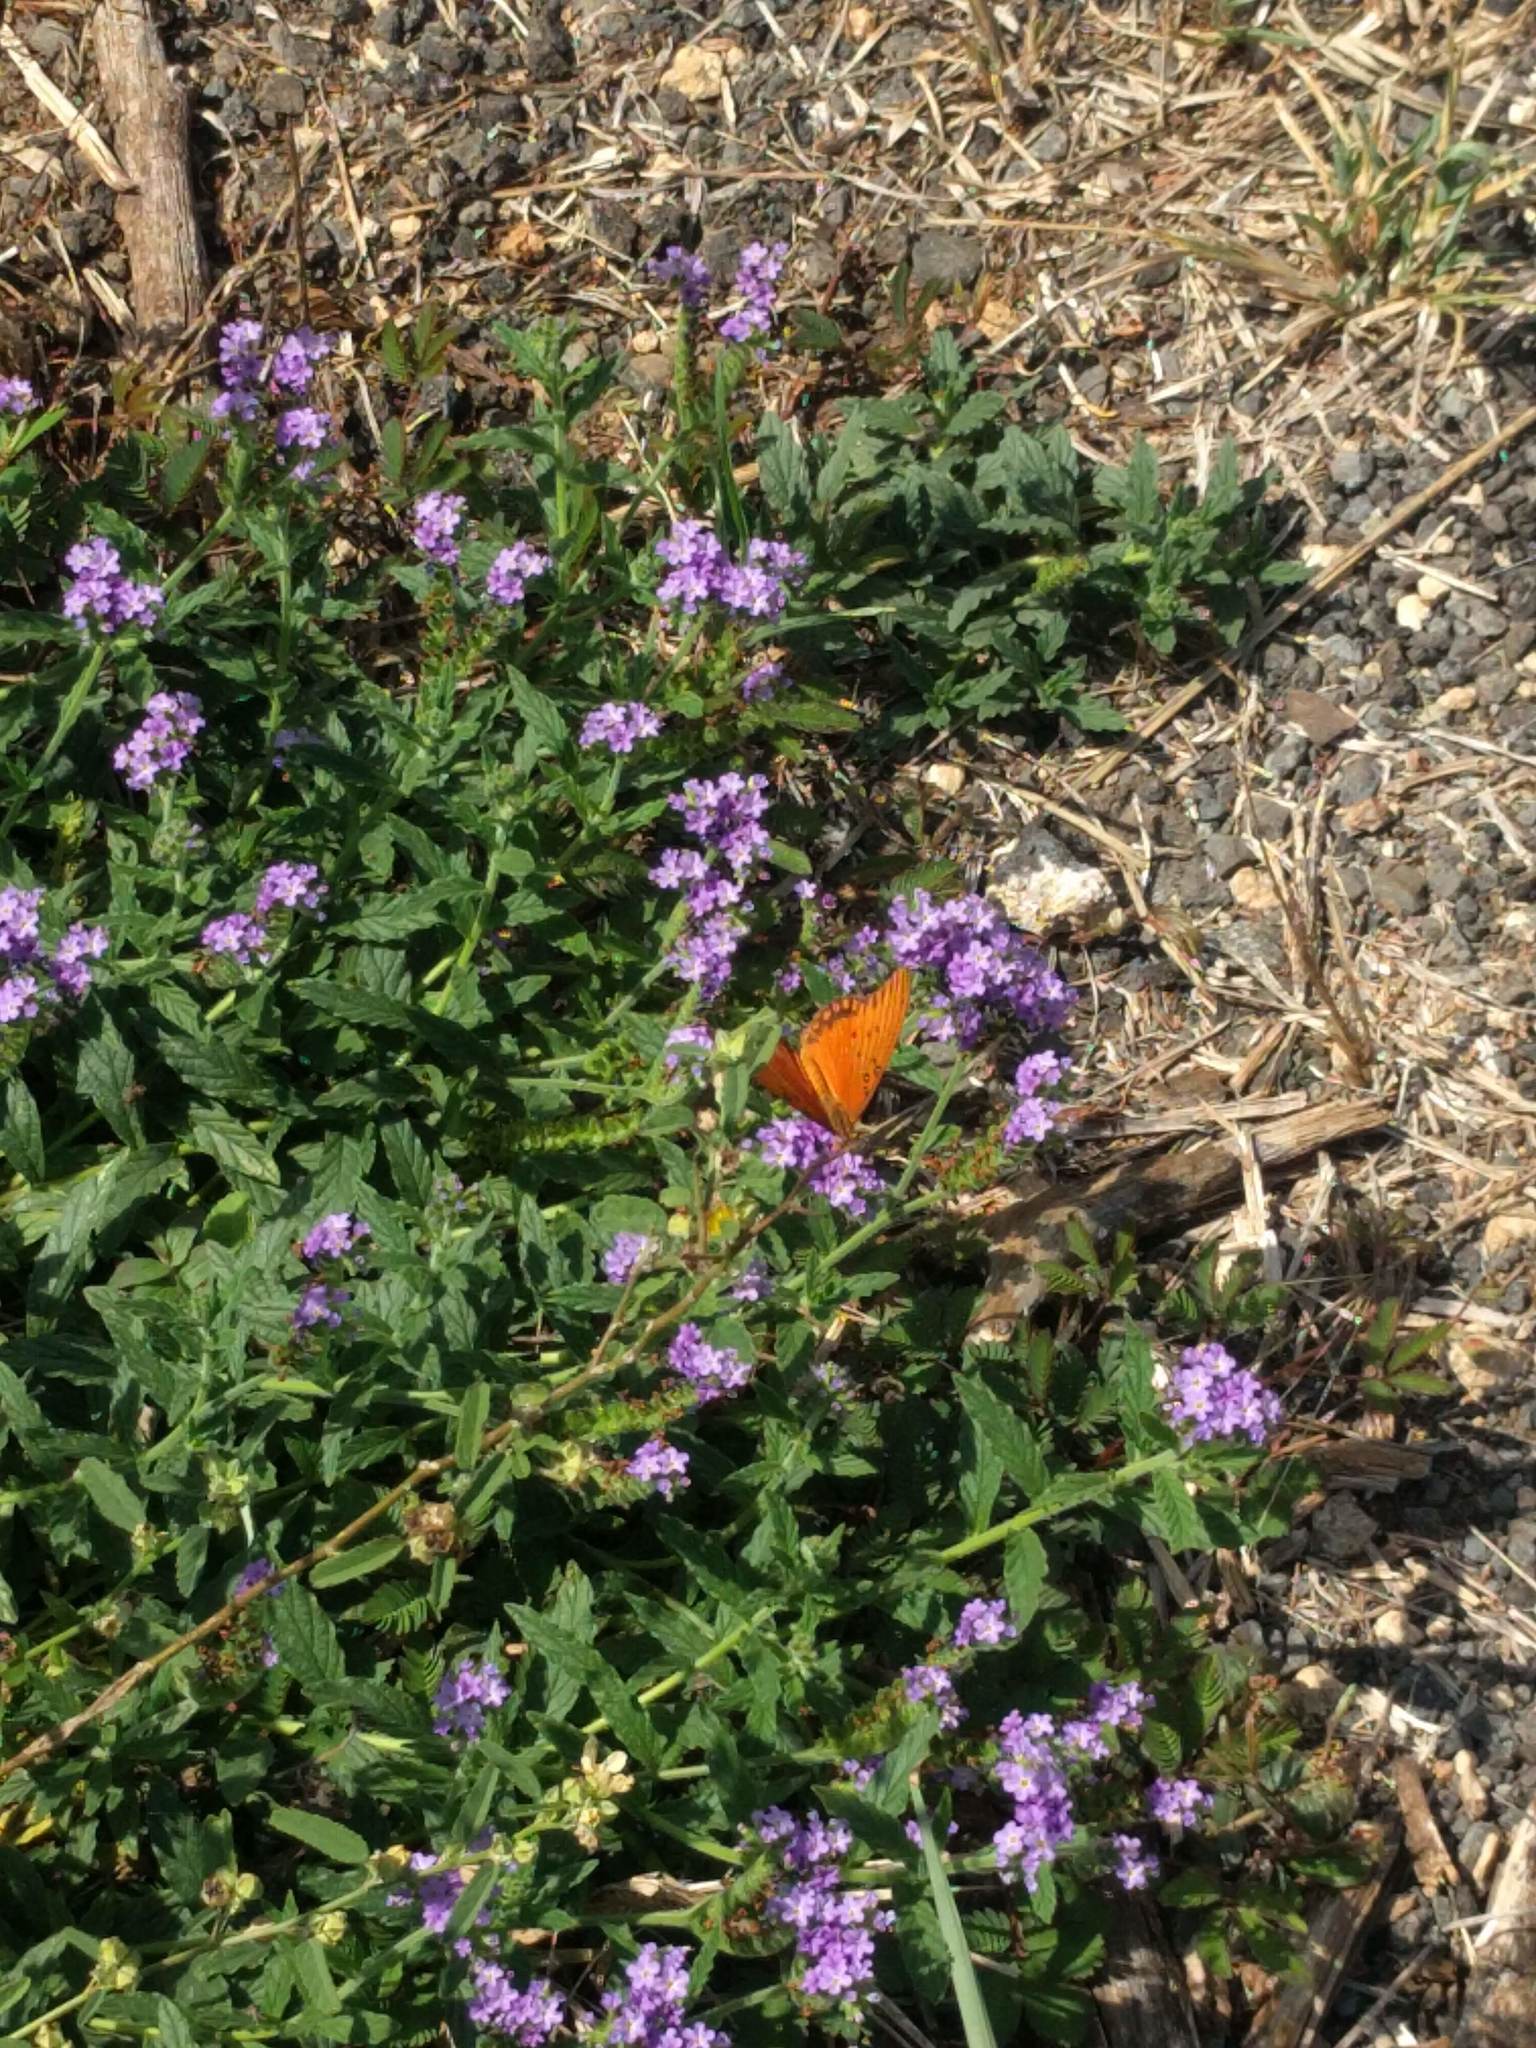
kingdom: Animalia
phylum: Arthropoda
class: Insecta
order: Lepidoptera
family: Nymphalidae
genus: Dione
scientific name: Dione vanillae
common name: Gulf fritillary
